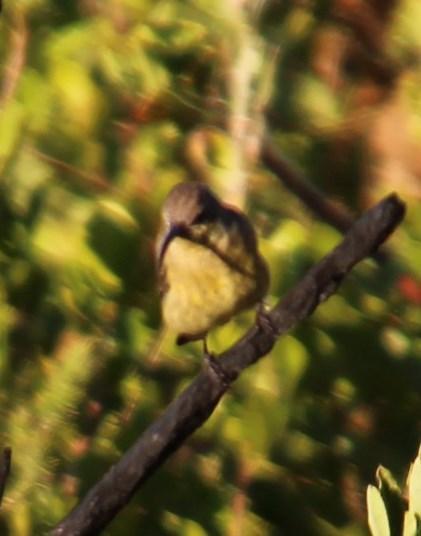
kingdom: Animalia
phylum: Chordata
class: Aves
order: Passeriformes
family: Nectariniidae
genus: Anthobaphes
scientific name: Anthobaphes violacea
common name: Orange-breasted sunbird
